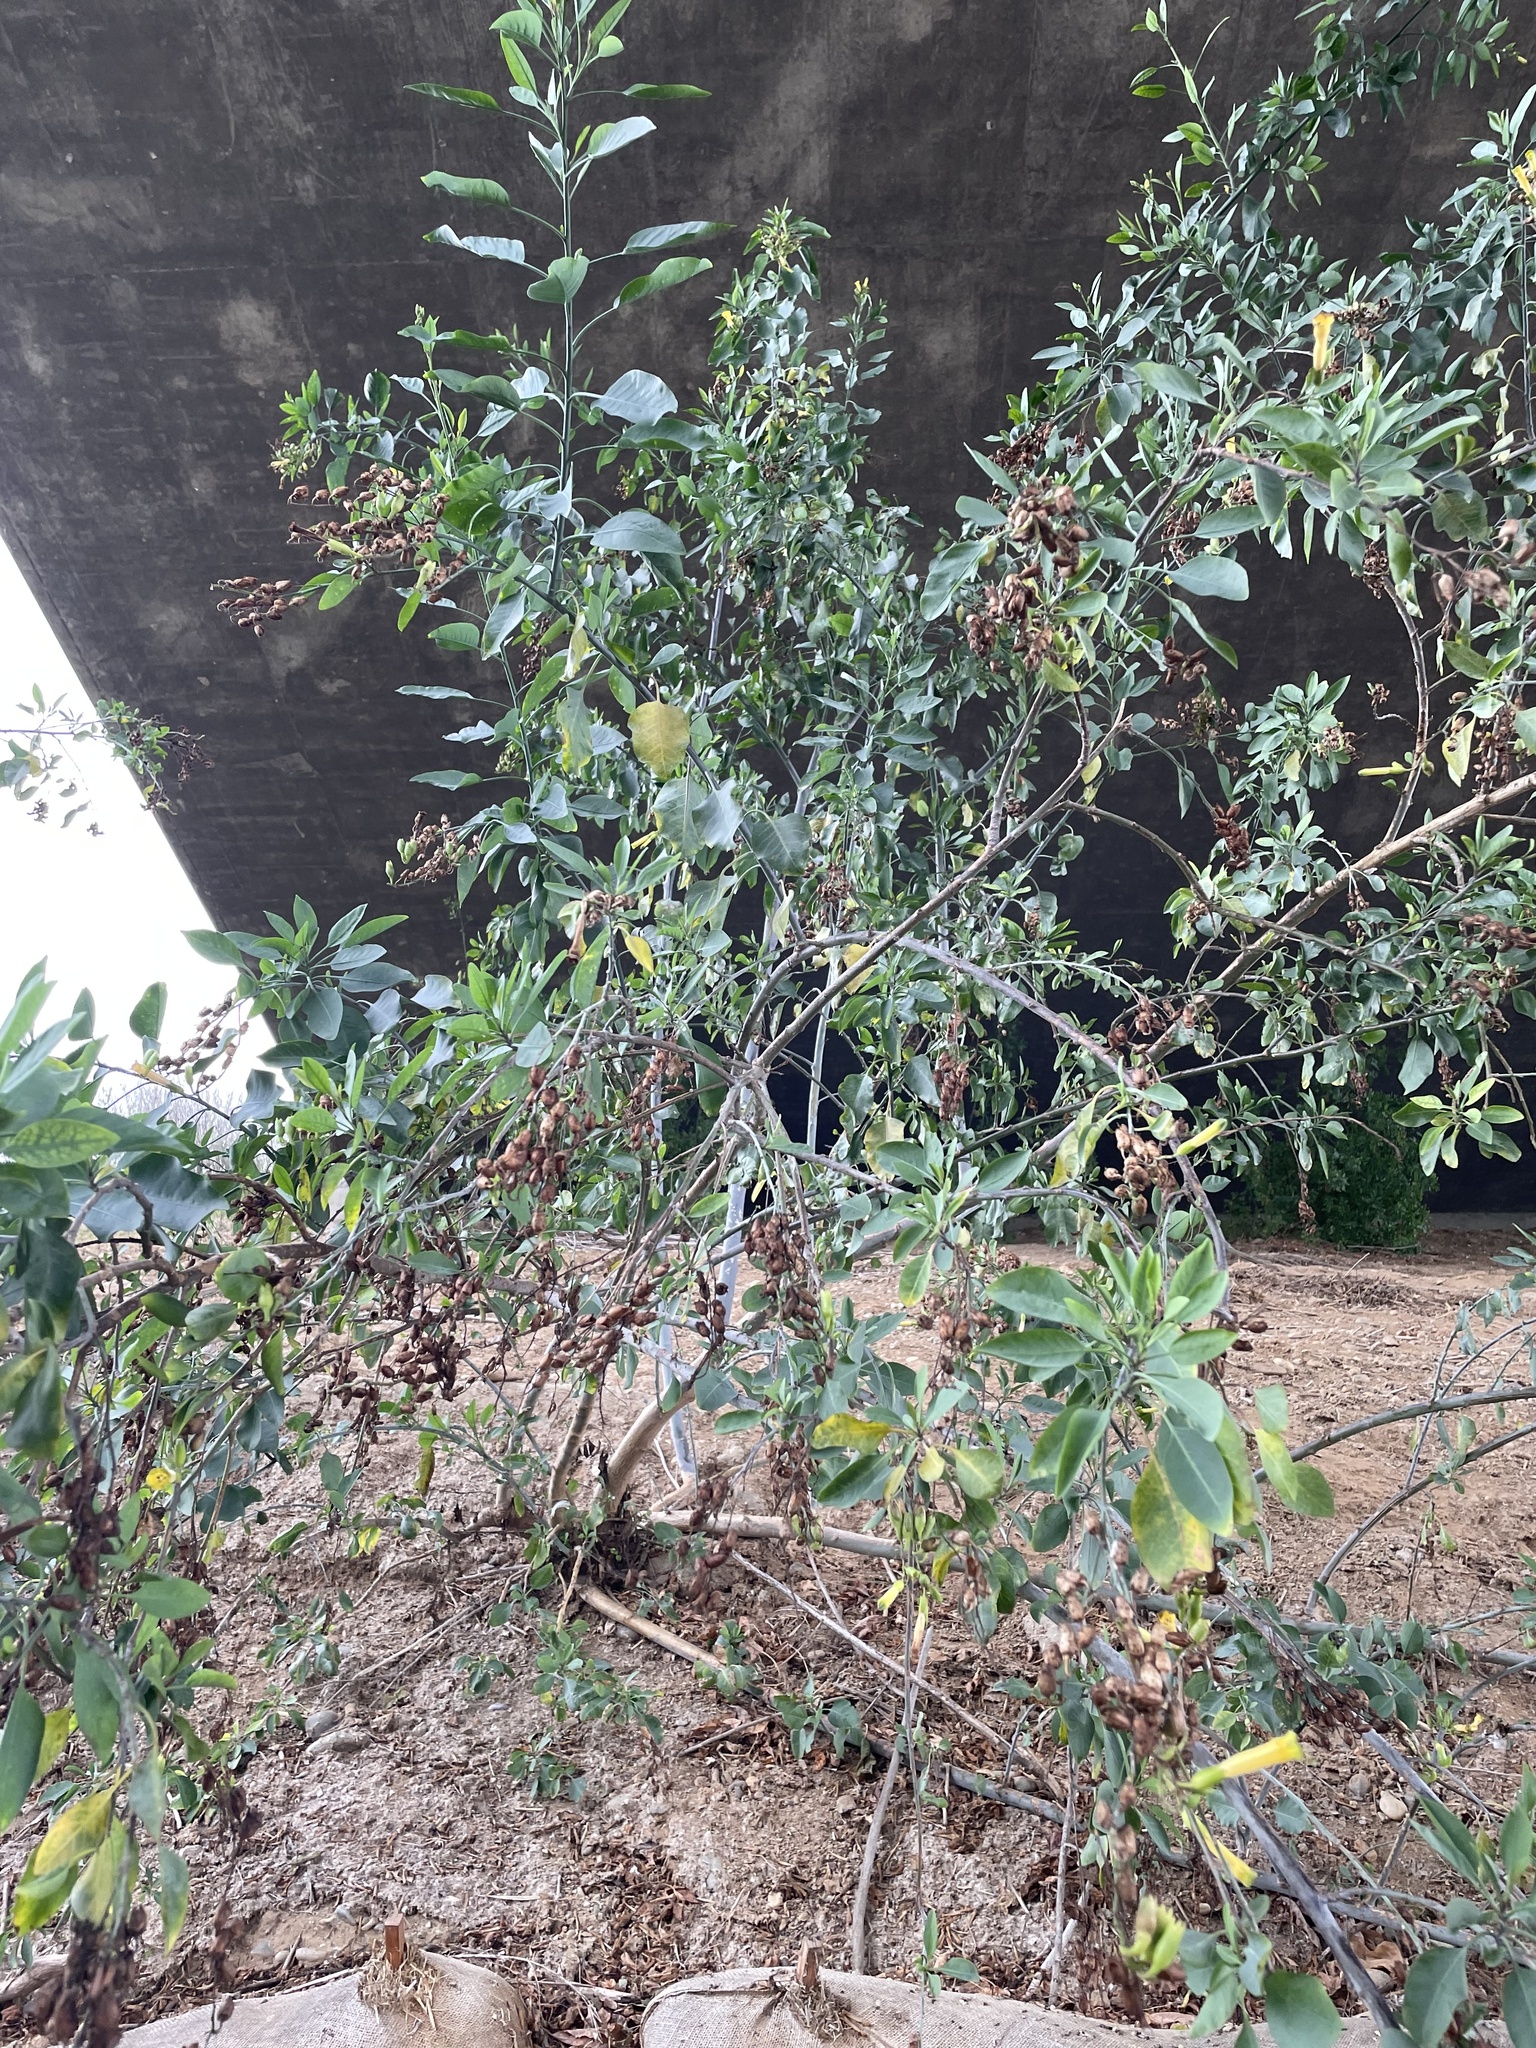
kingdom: Plantae
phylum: Tracheophyta
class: Magnoliopsida
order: Solanales
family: Solanaceae
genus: Nicotiana
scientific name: Nicotiana glauca
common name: Tree tobacco
